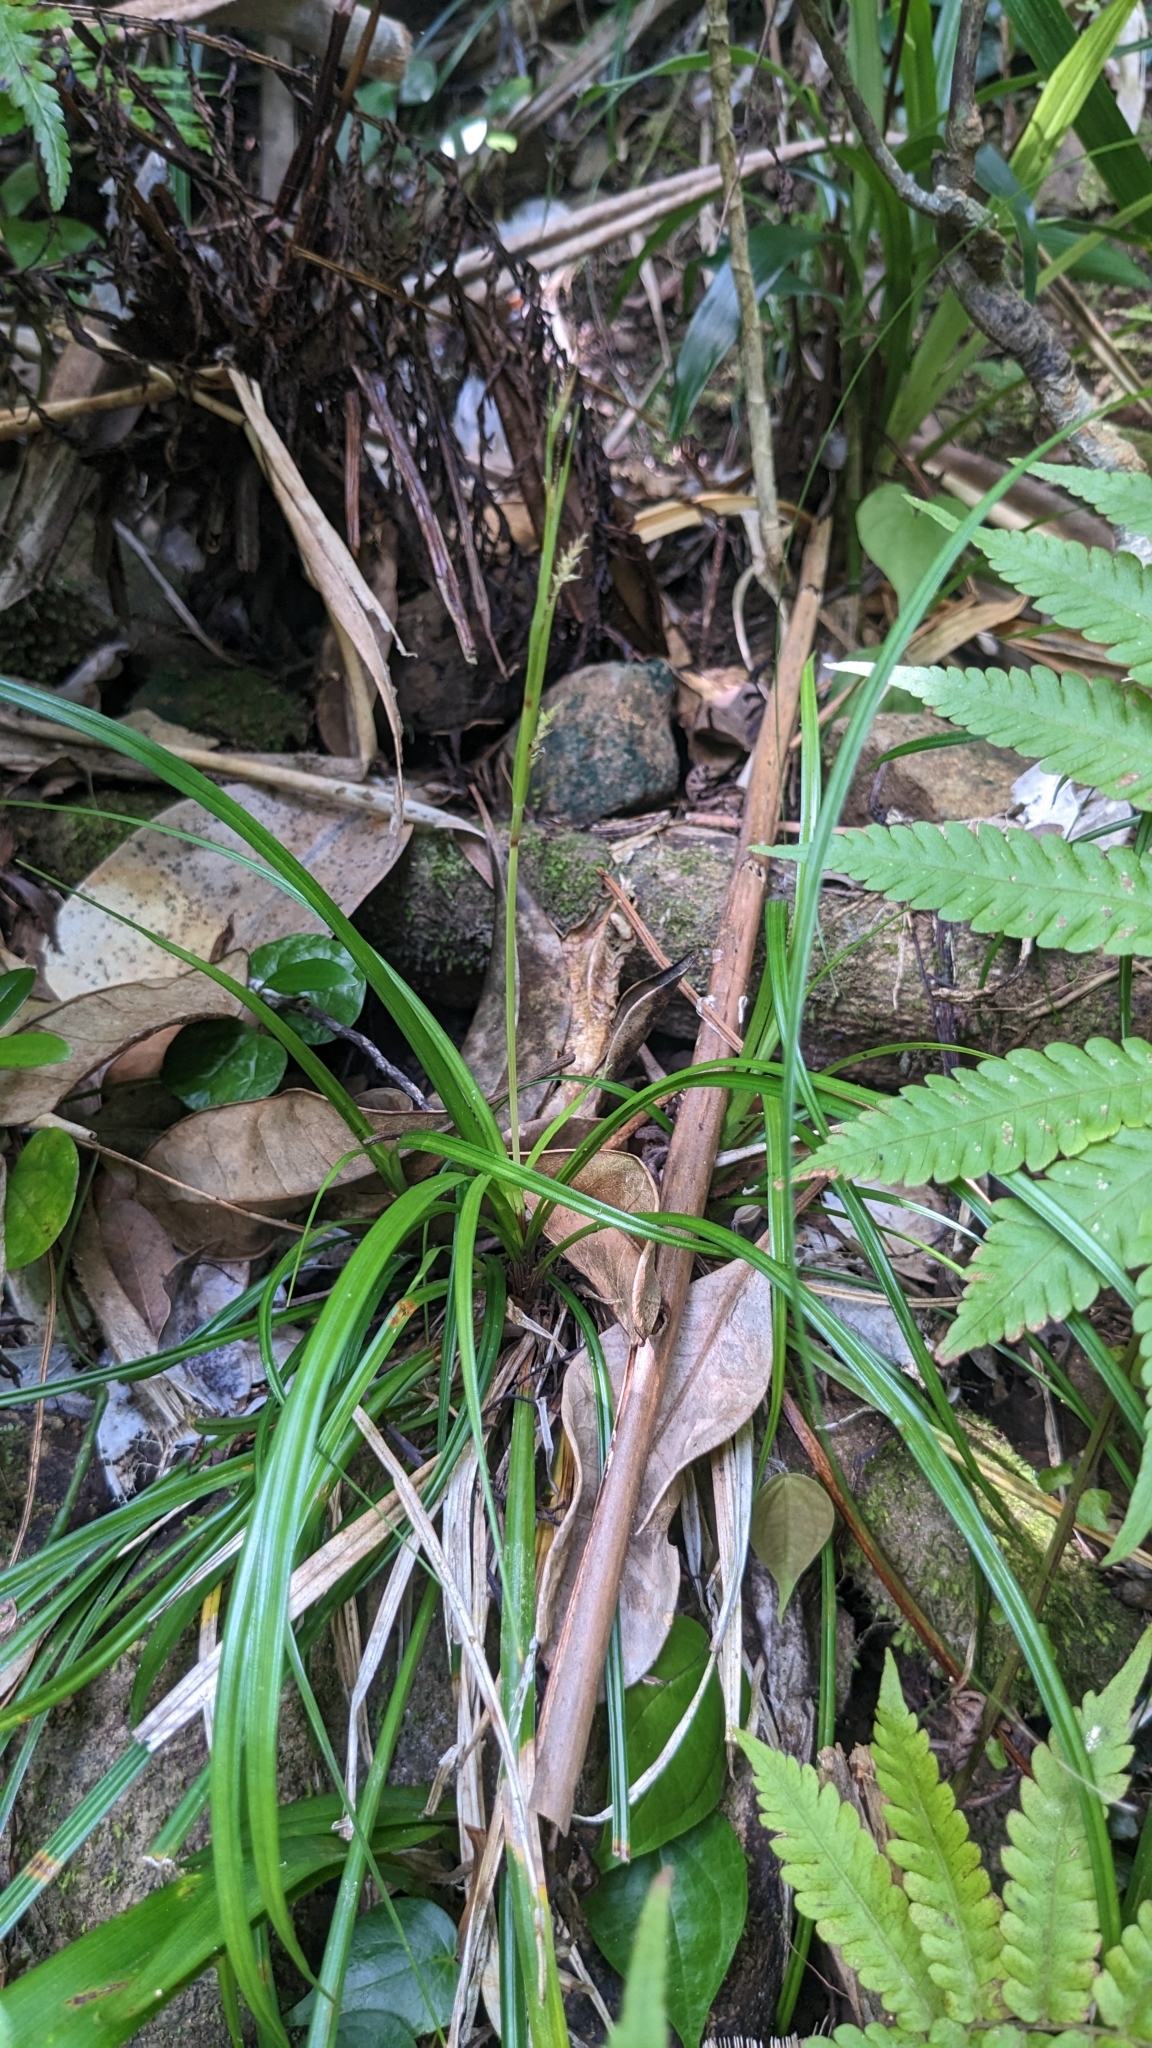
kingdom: Plantae
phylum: Tracheophyta
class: Liliopsida
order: Poales
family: Cyperaceae
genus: Carex
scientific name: Carex sociata
